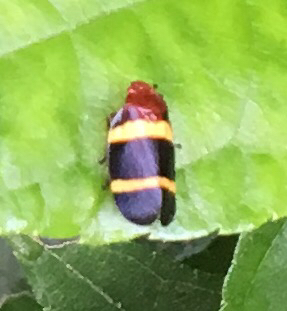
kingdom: Animalia
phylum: Arthropoda
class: Insecta
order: Hemiptera
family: Cercopidae
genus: Sphenorhina
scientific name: Sphenorhina rubra
